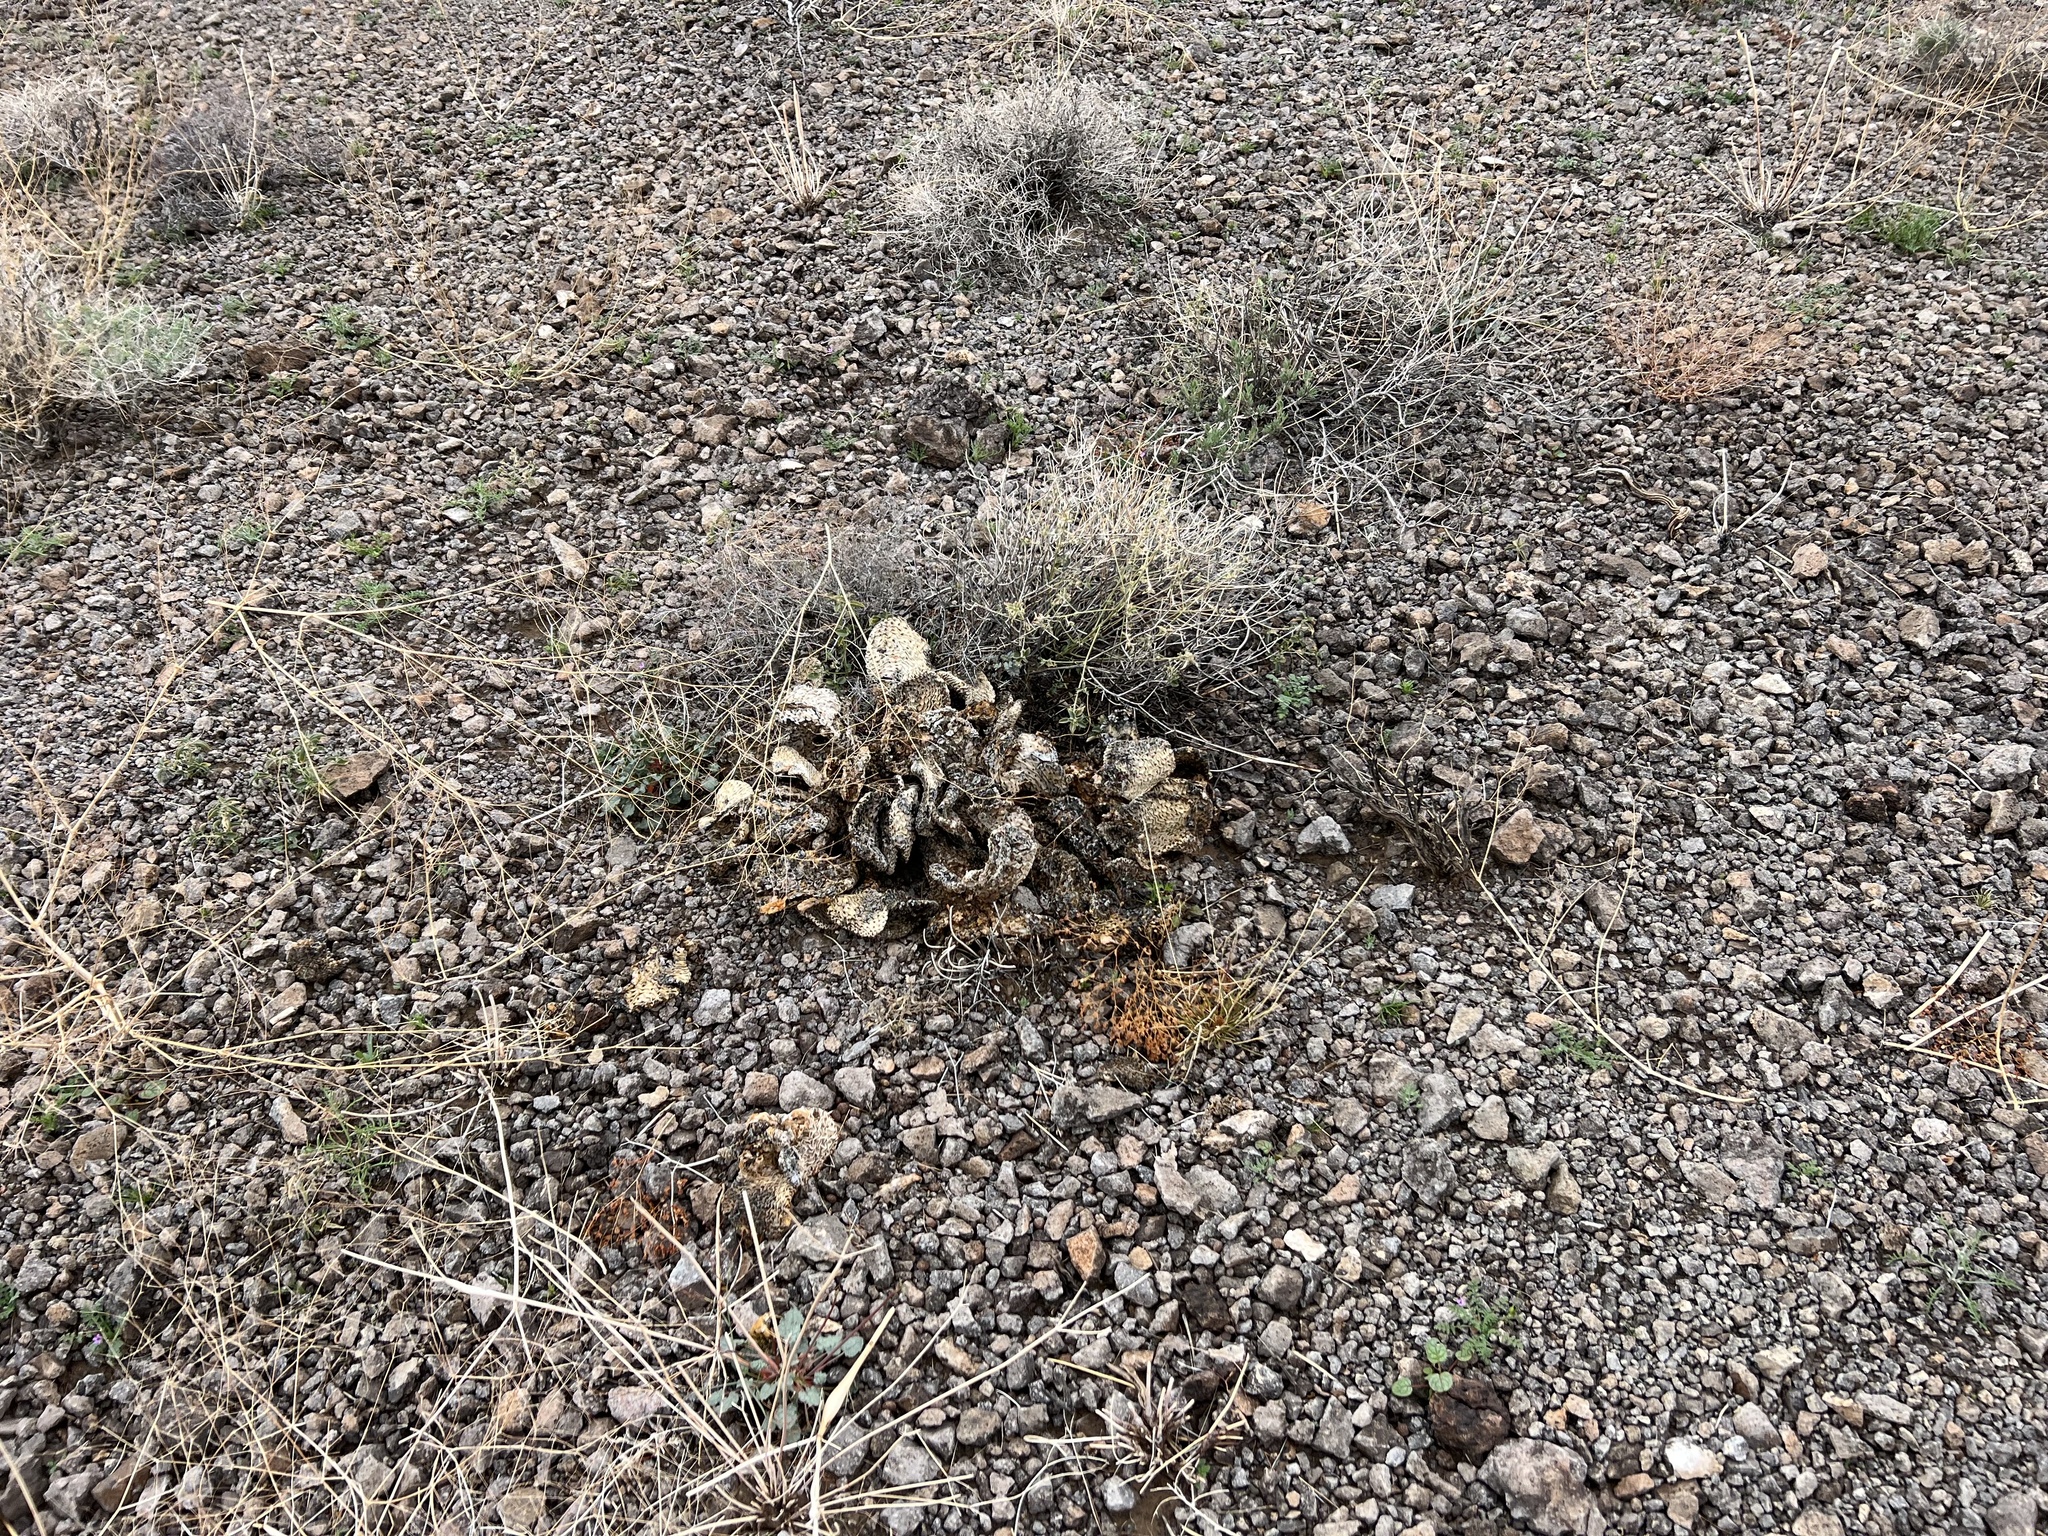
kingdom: Plantae
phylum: Tracheophyta
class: Magnoliopsida
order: Caryophyllales
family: Cactaceae
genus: Opuntia
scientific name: Opuntia basilaris
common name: Beavertail prickly-pear
